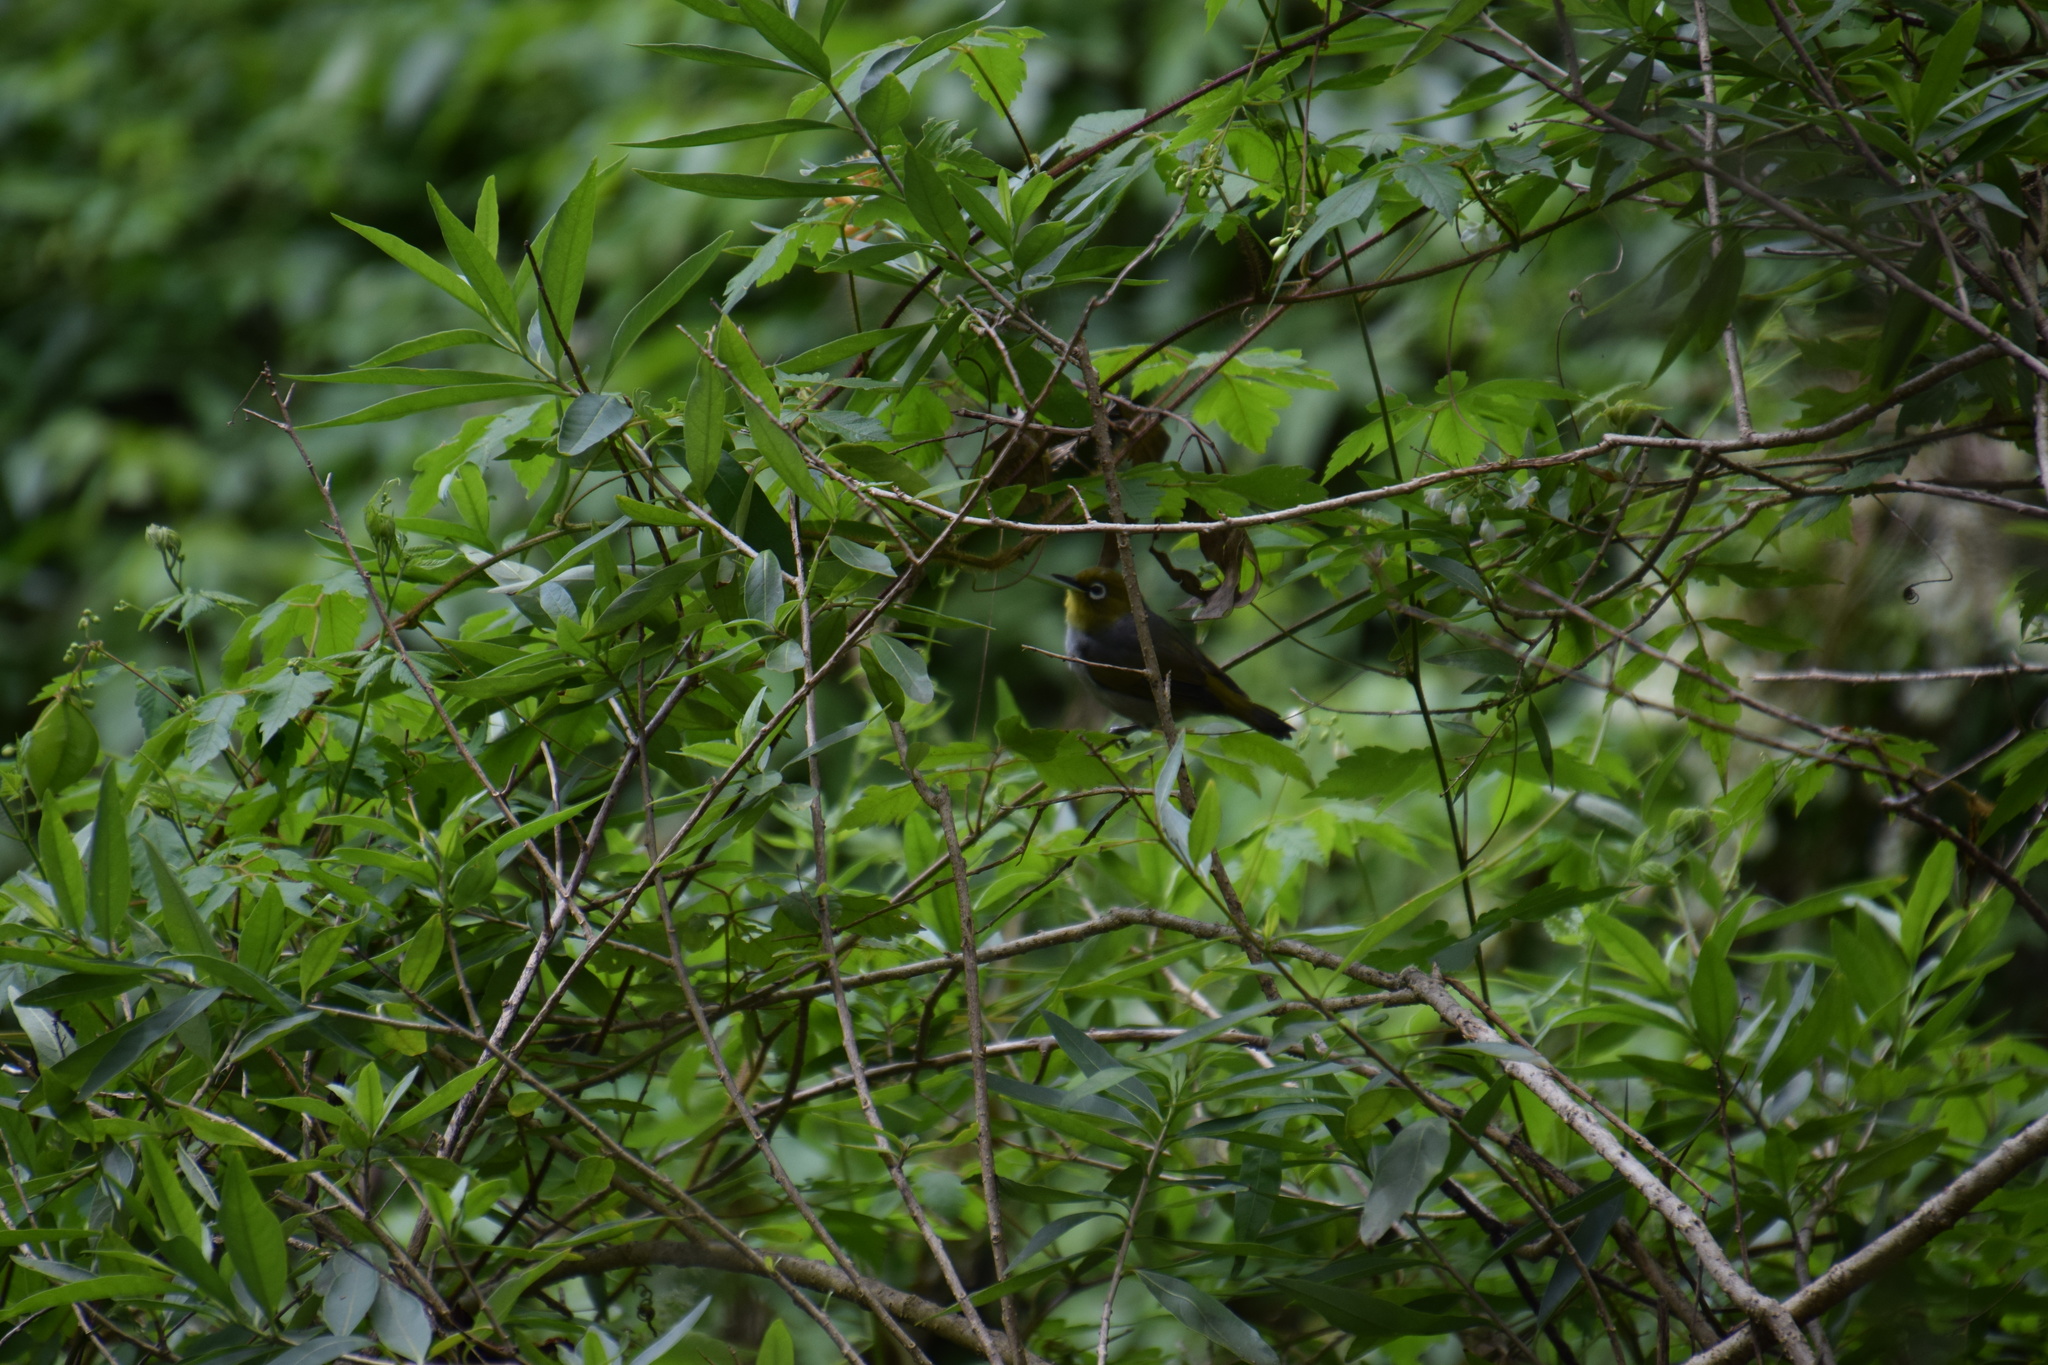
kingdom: Animalia
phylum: Chordata
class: Aves
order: Passeriformes
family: Zosteropidae
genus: Zosterops
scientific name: Zosterops lateralis
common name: Silvereye
